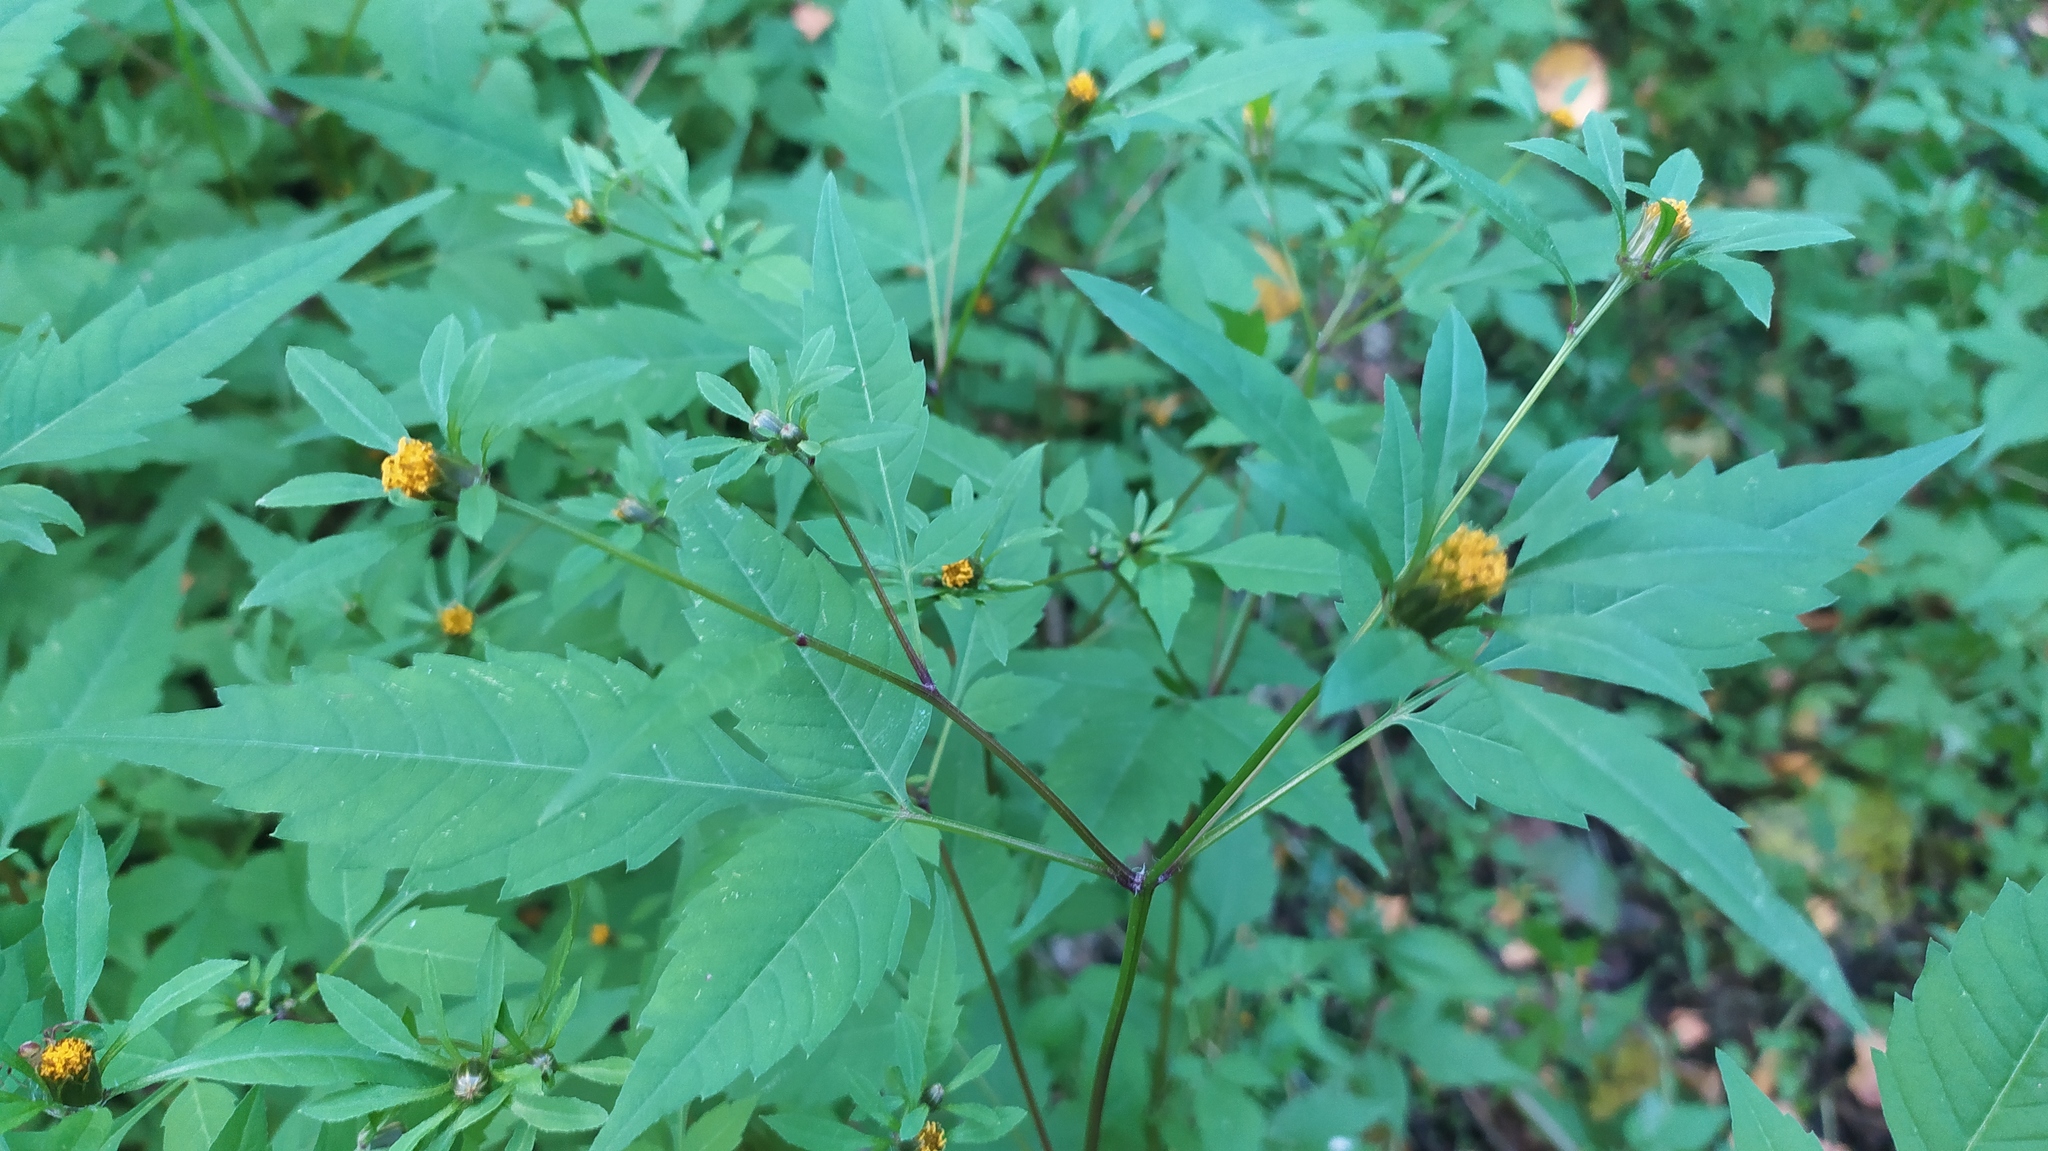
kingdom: Plantae
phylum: Tracheophyta
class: Magnoliopsida
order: Asterales
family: Asteraceae
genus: Bidens
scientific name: Bidens frondosa
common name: Beggarticks
